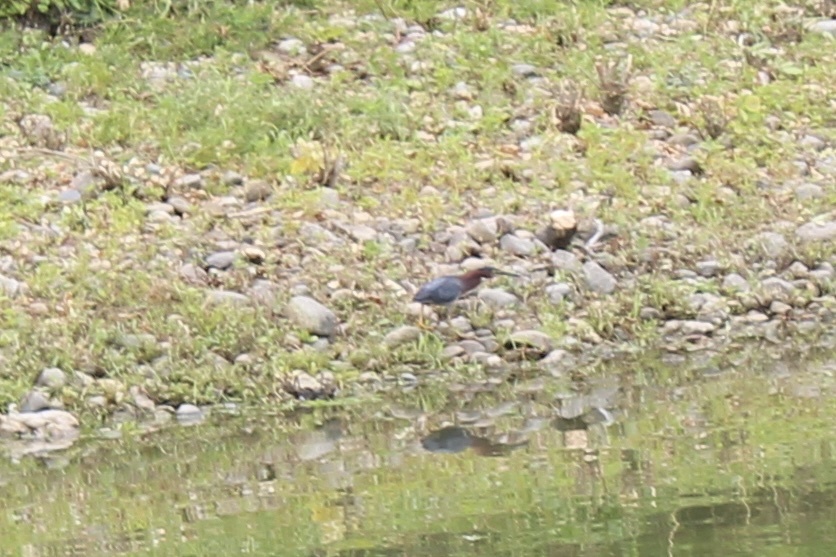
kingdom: Animalia
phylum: Chordata
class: Aves
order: Pelecaniformes
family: Ardeidae
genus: Butorides
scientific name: Butorides virescens
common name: Green heron
